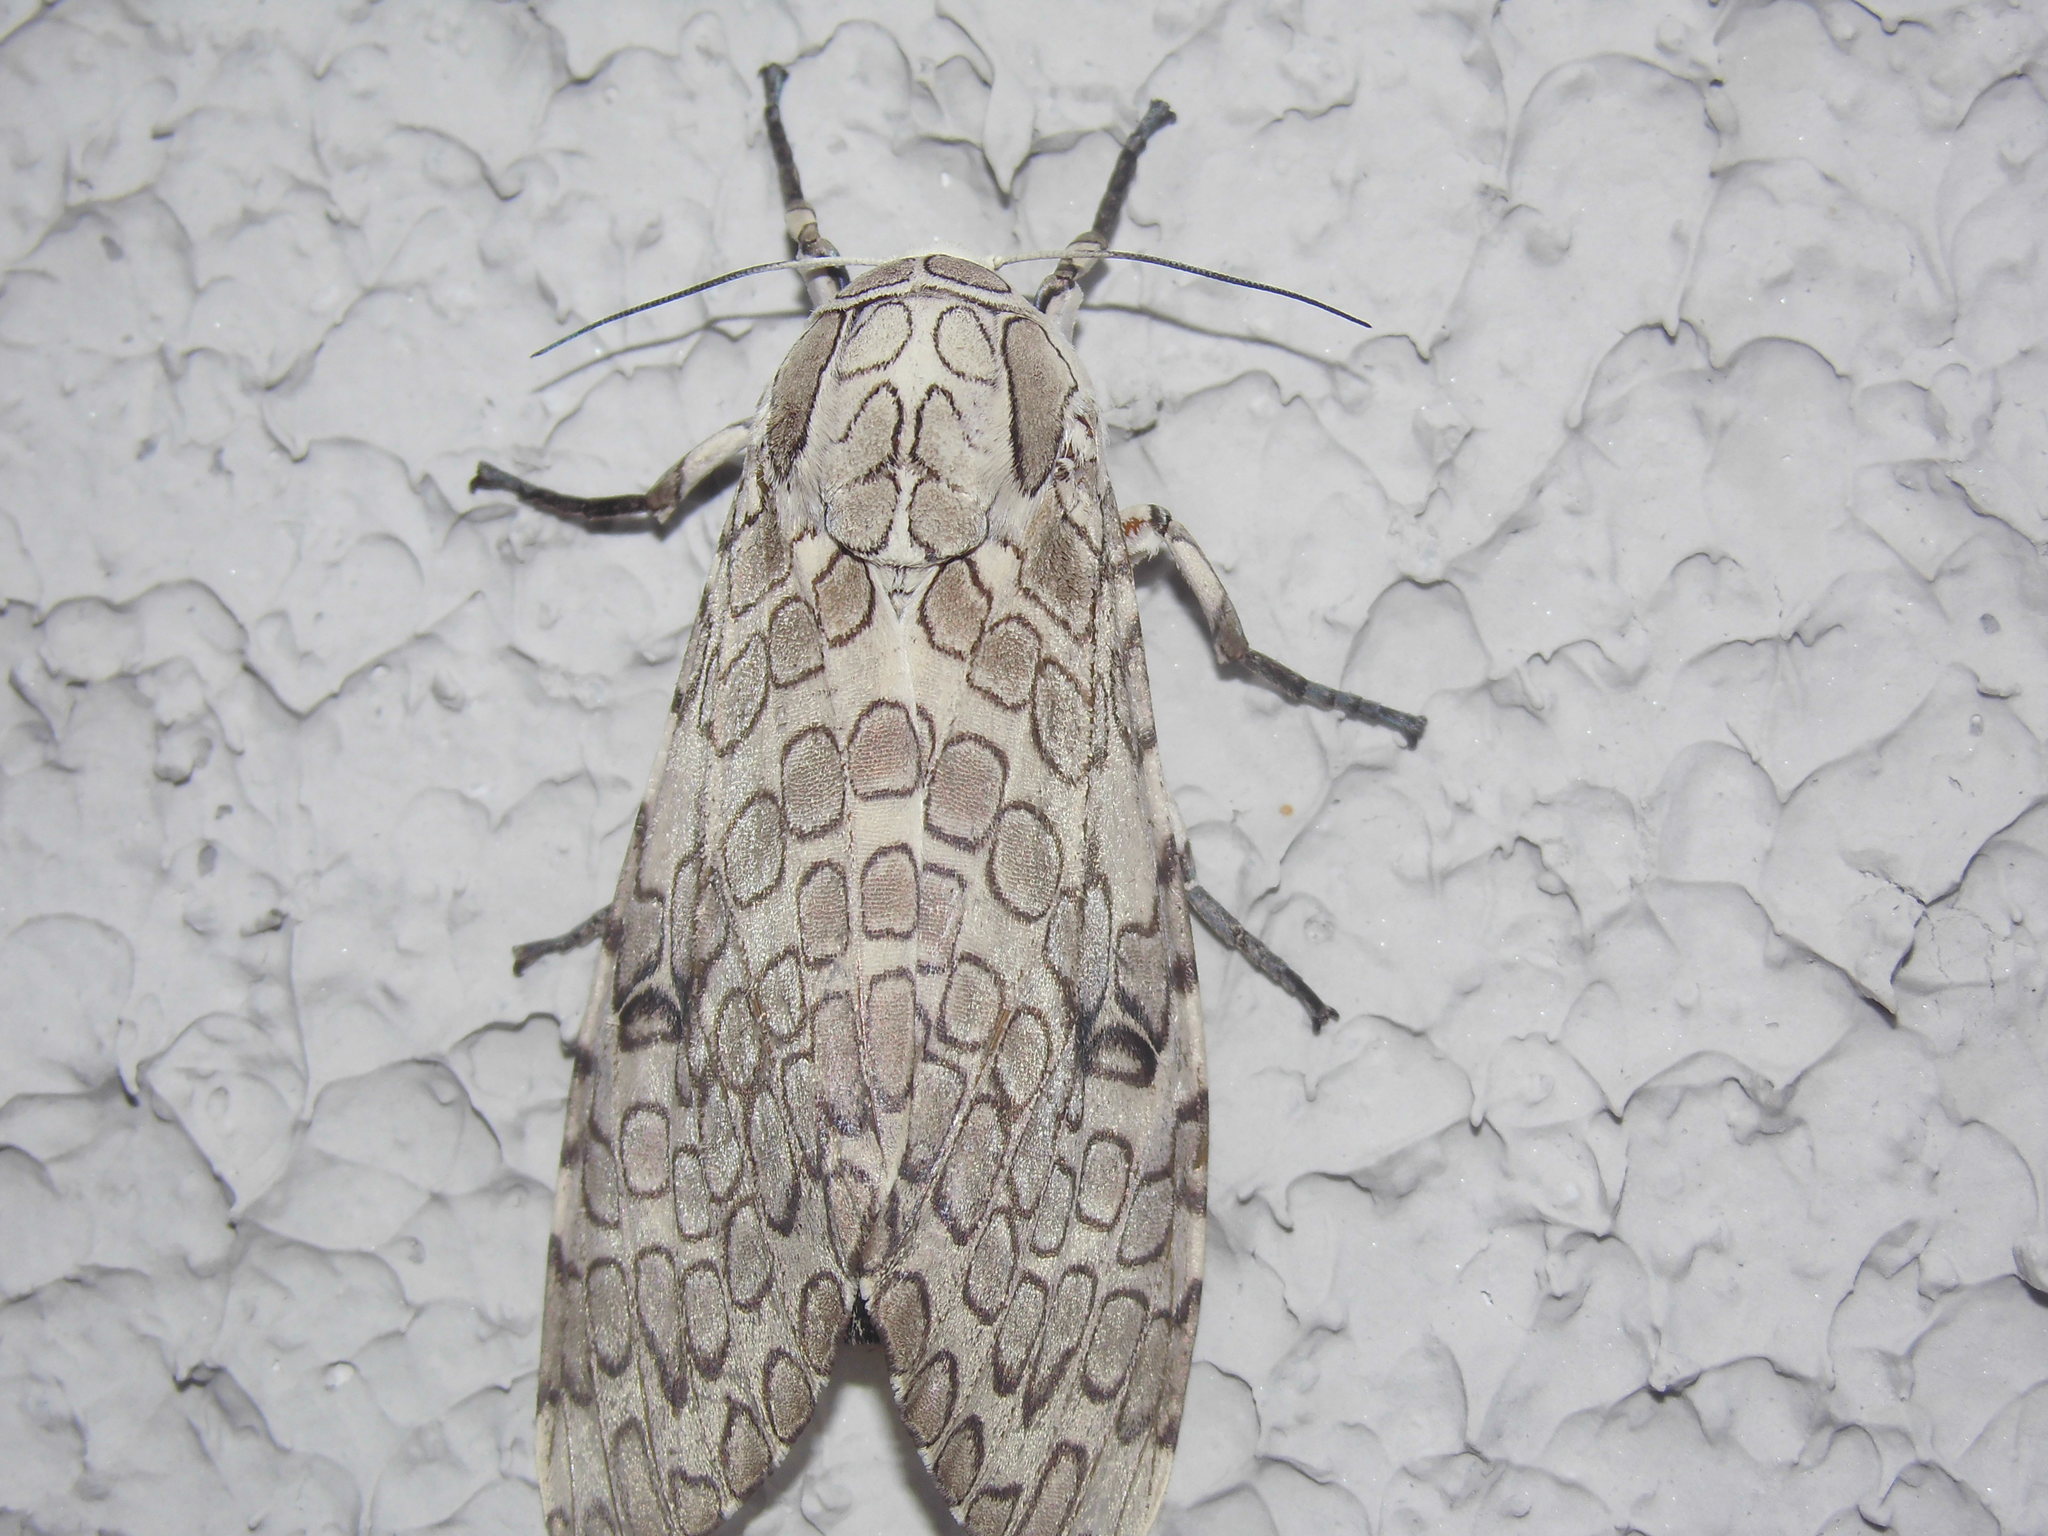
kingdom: Animalia
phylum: Arthropoda
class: Insecta
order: Lepidoptera
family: Erebidae
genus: Hypercompe
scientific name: Hypercompe abdominalis
